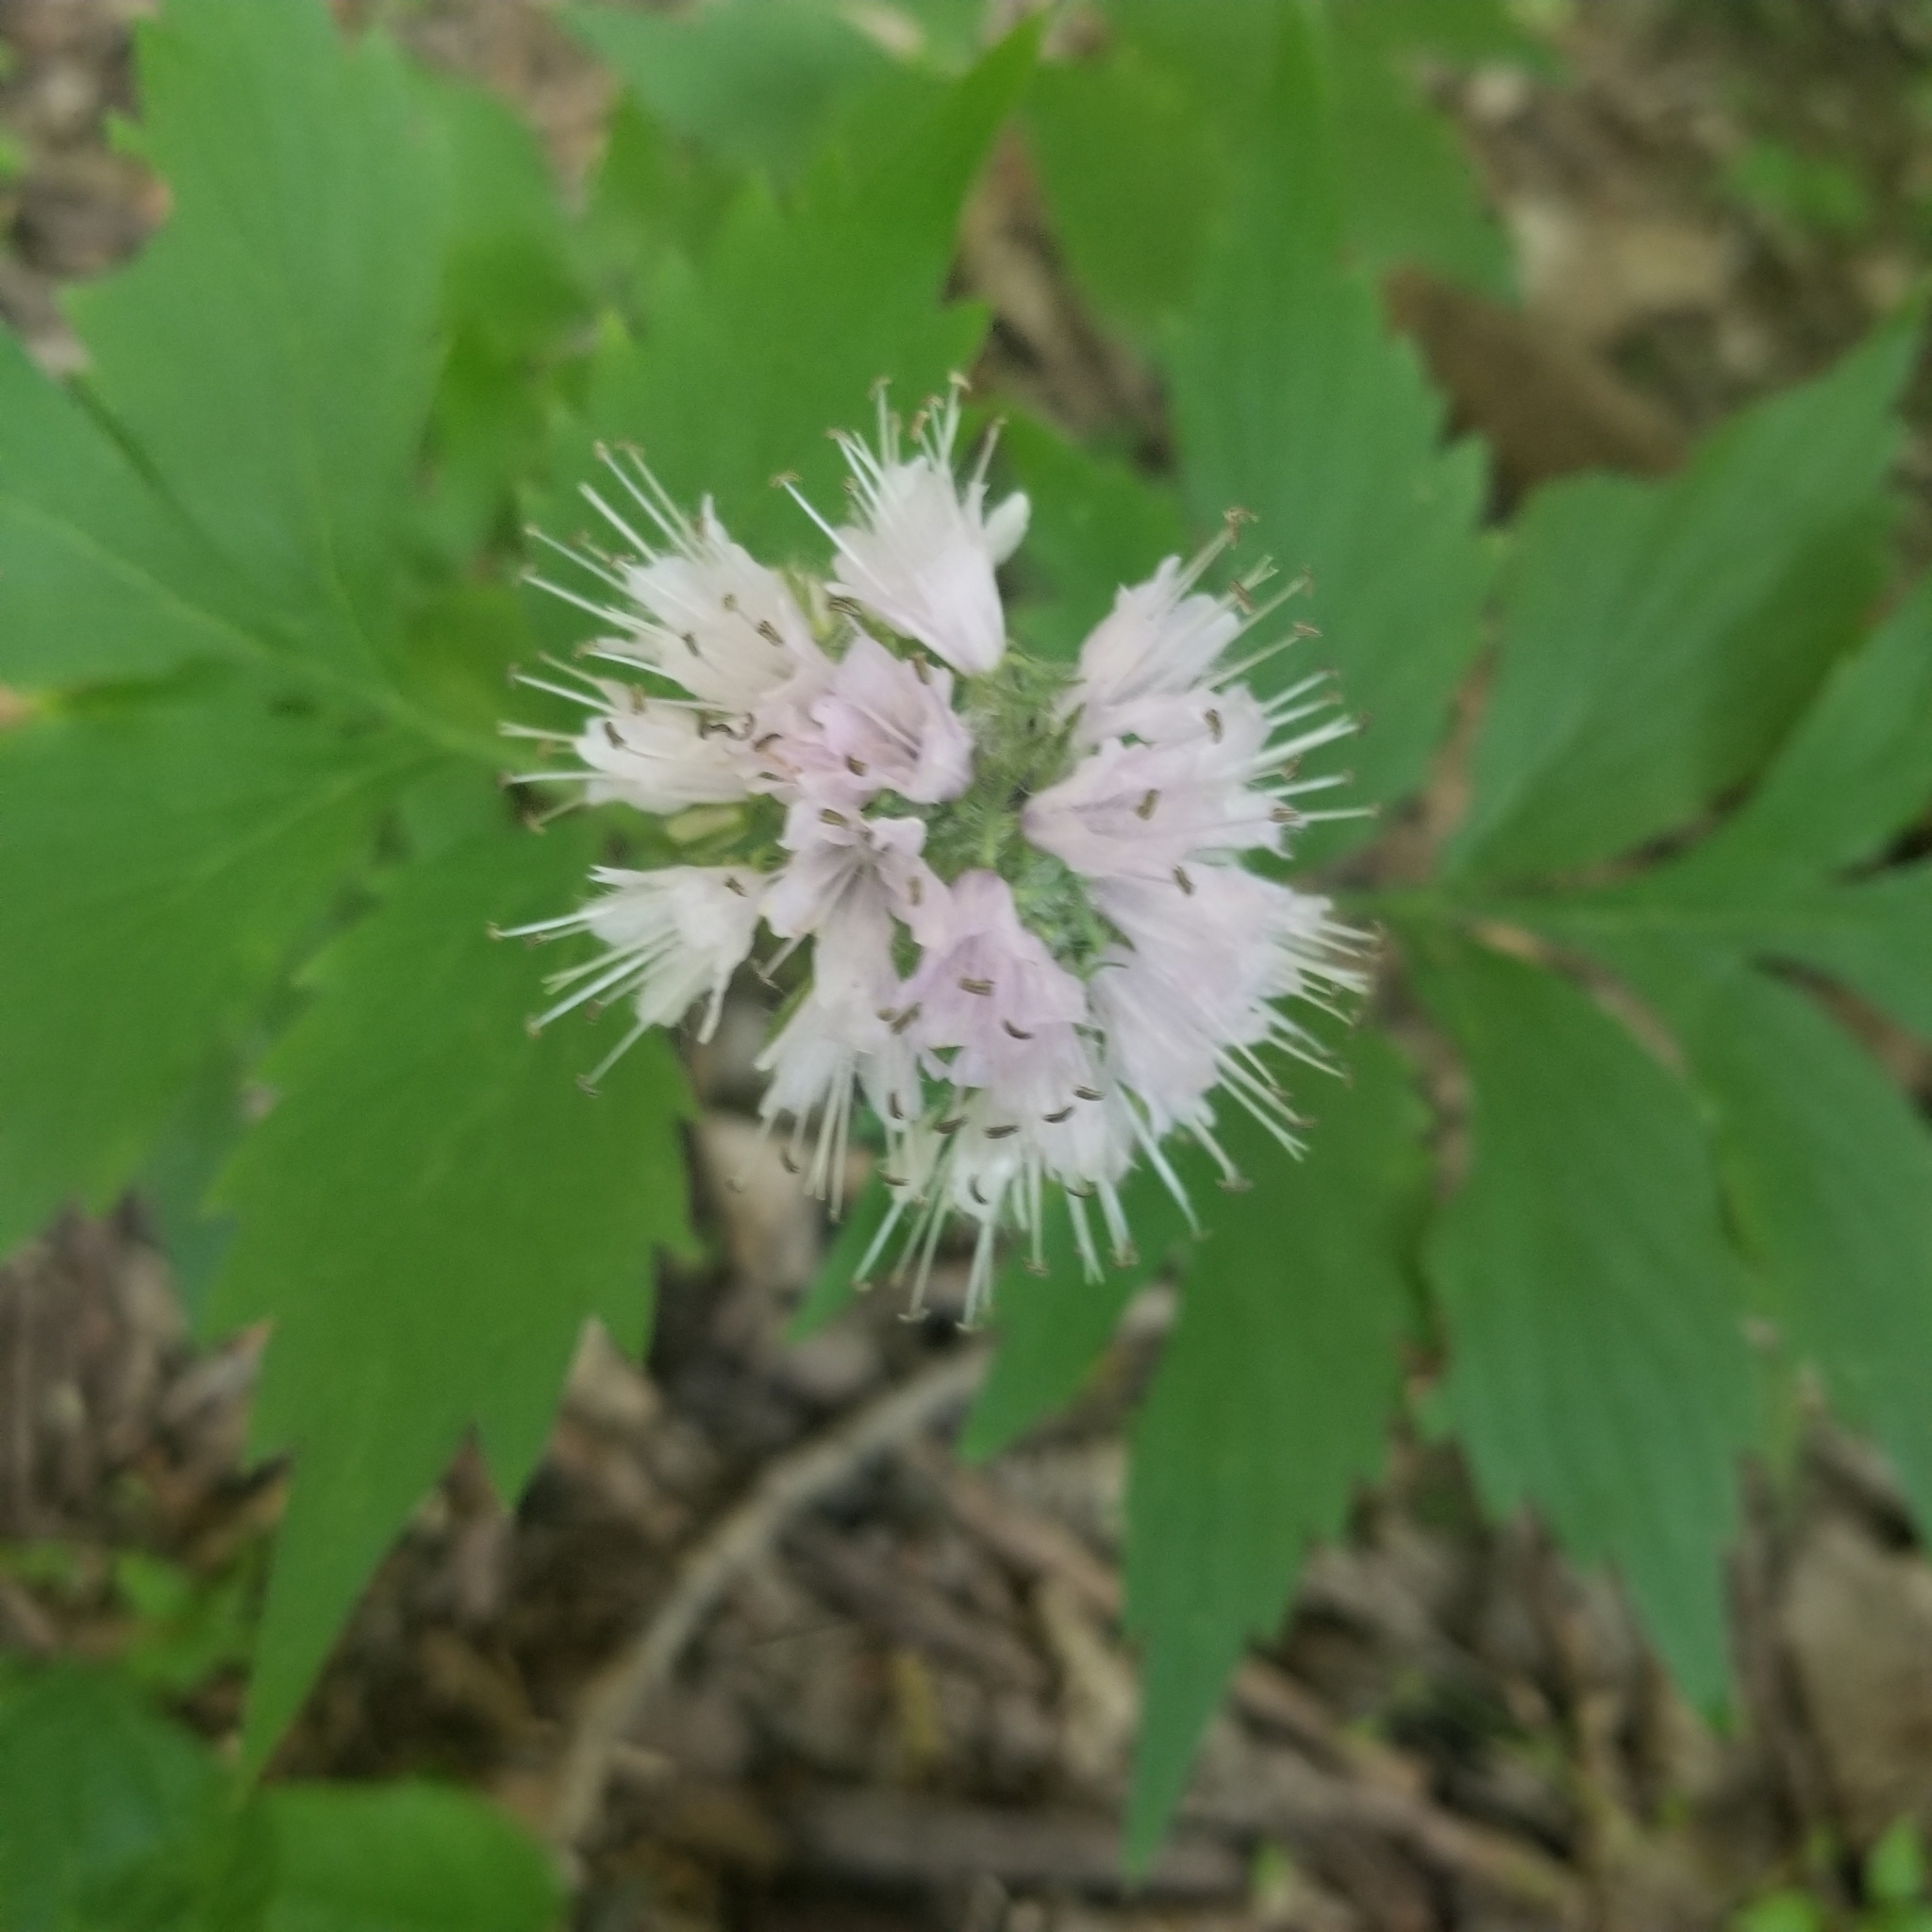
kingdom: Plantae
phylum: Tracheophyta
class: Magnoliopsida
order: Boraginales
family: Hydrophyllaceae
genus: Hydrophyllum
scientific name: Hydrophyllum virginianum
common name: Virginia waterleaf
